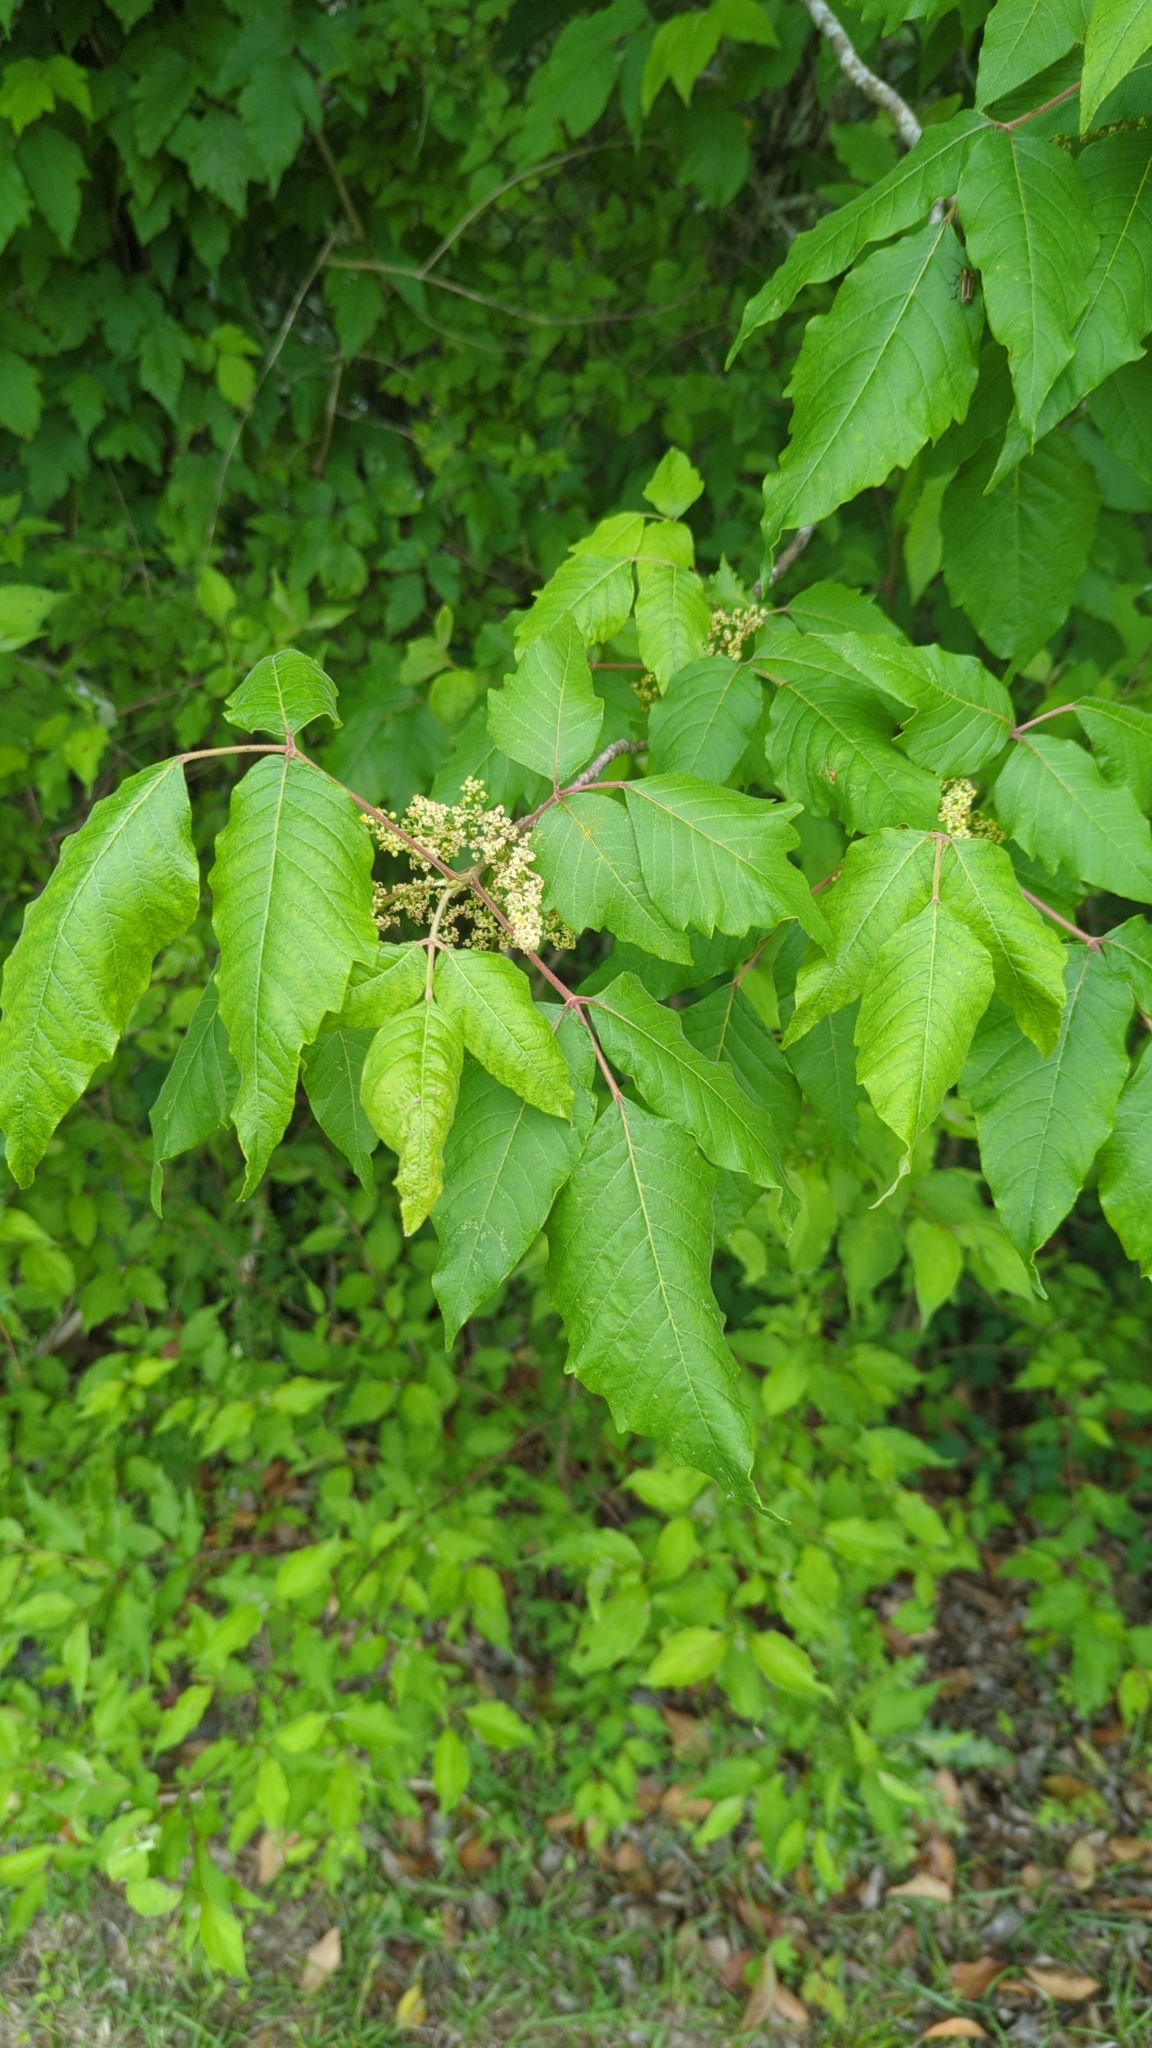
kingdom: Plantae
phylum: Tracheophyta
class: Magnoliopsida
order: Sapindales
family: Anacardiaceae
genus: Toxicodendron
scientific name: Toxicodendron radicans
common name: Poison ivy
